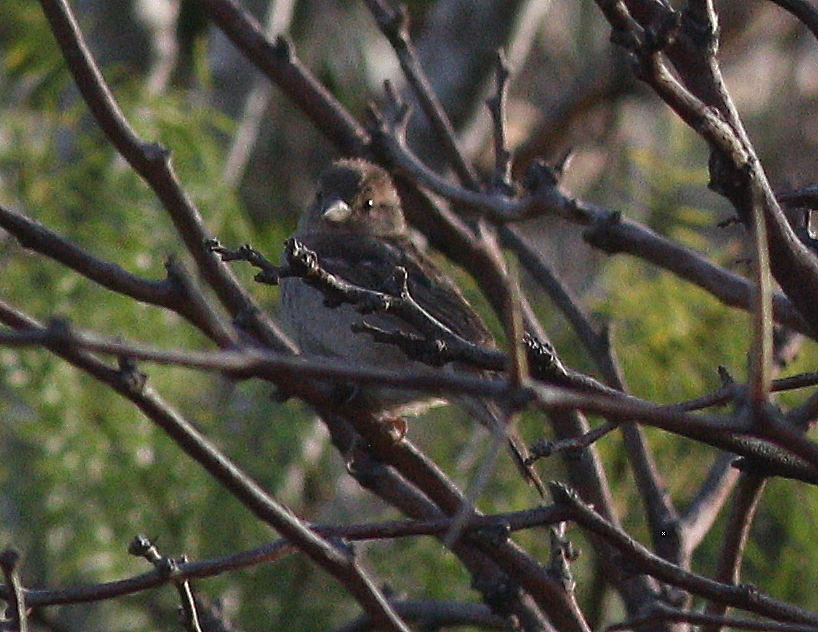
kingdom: Animalia
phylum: Chordata
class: Aves
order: Passeriformes
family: Passeridae
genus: Passer
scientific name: Passer domesticus
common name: House sparrow
